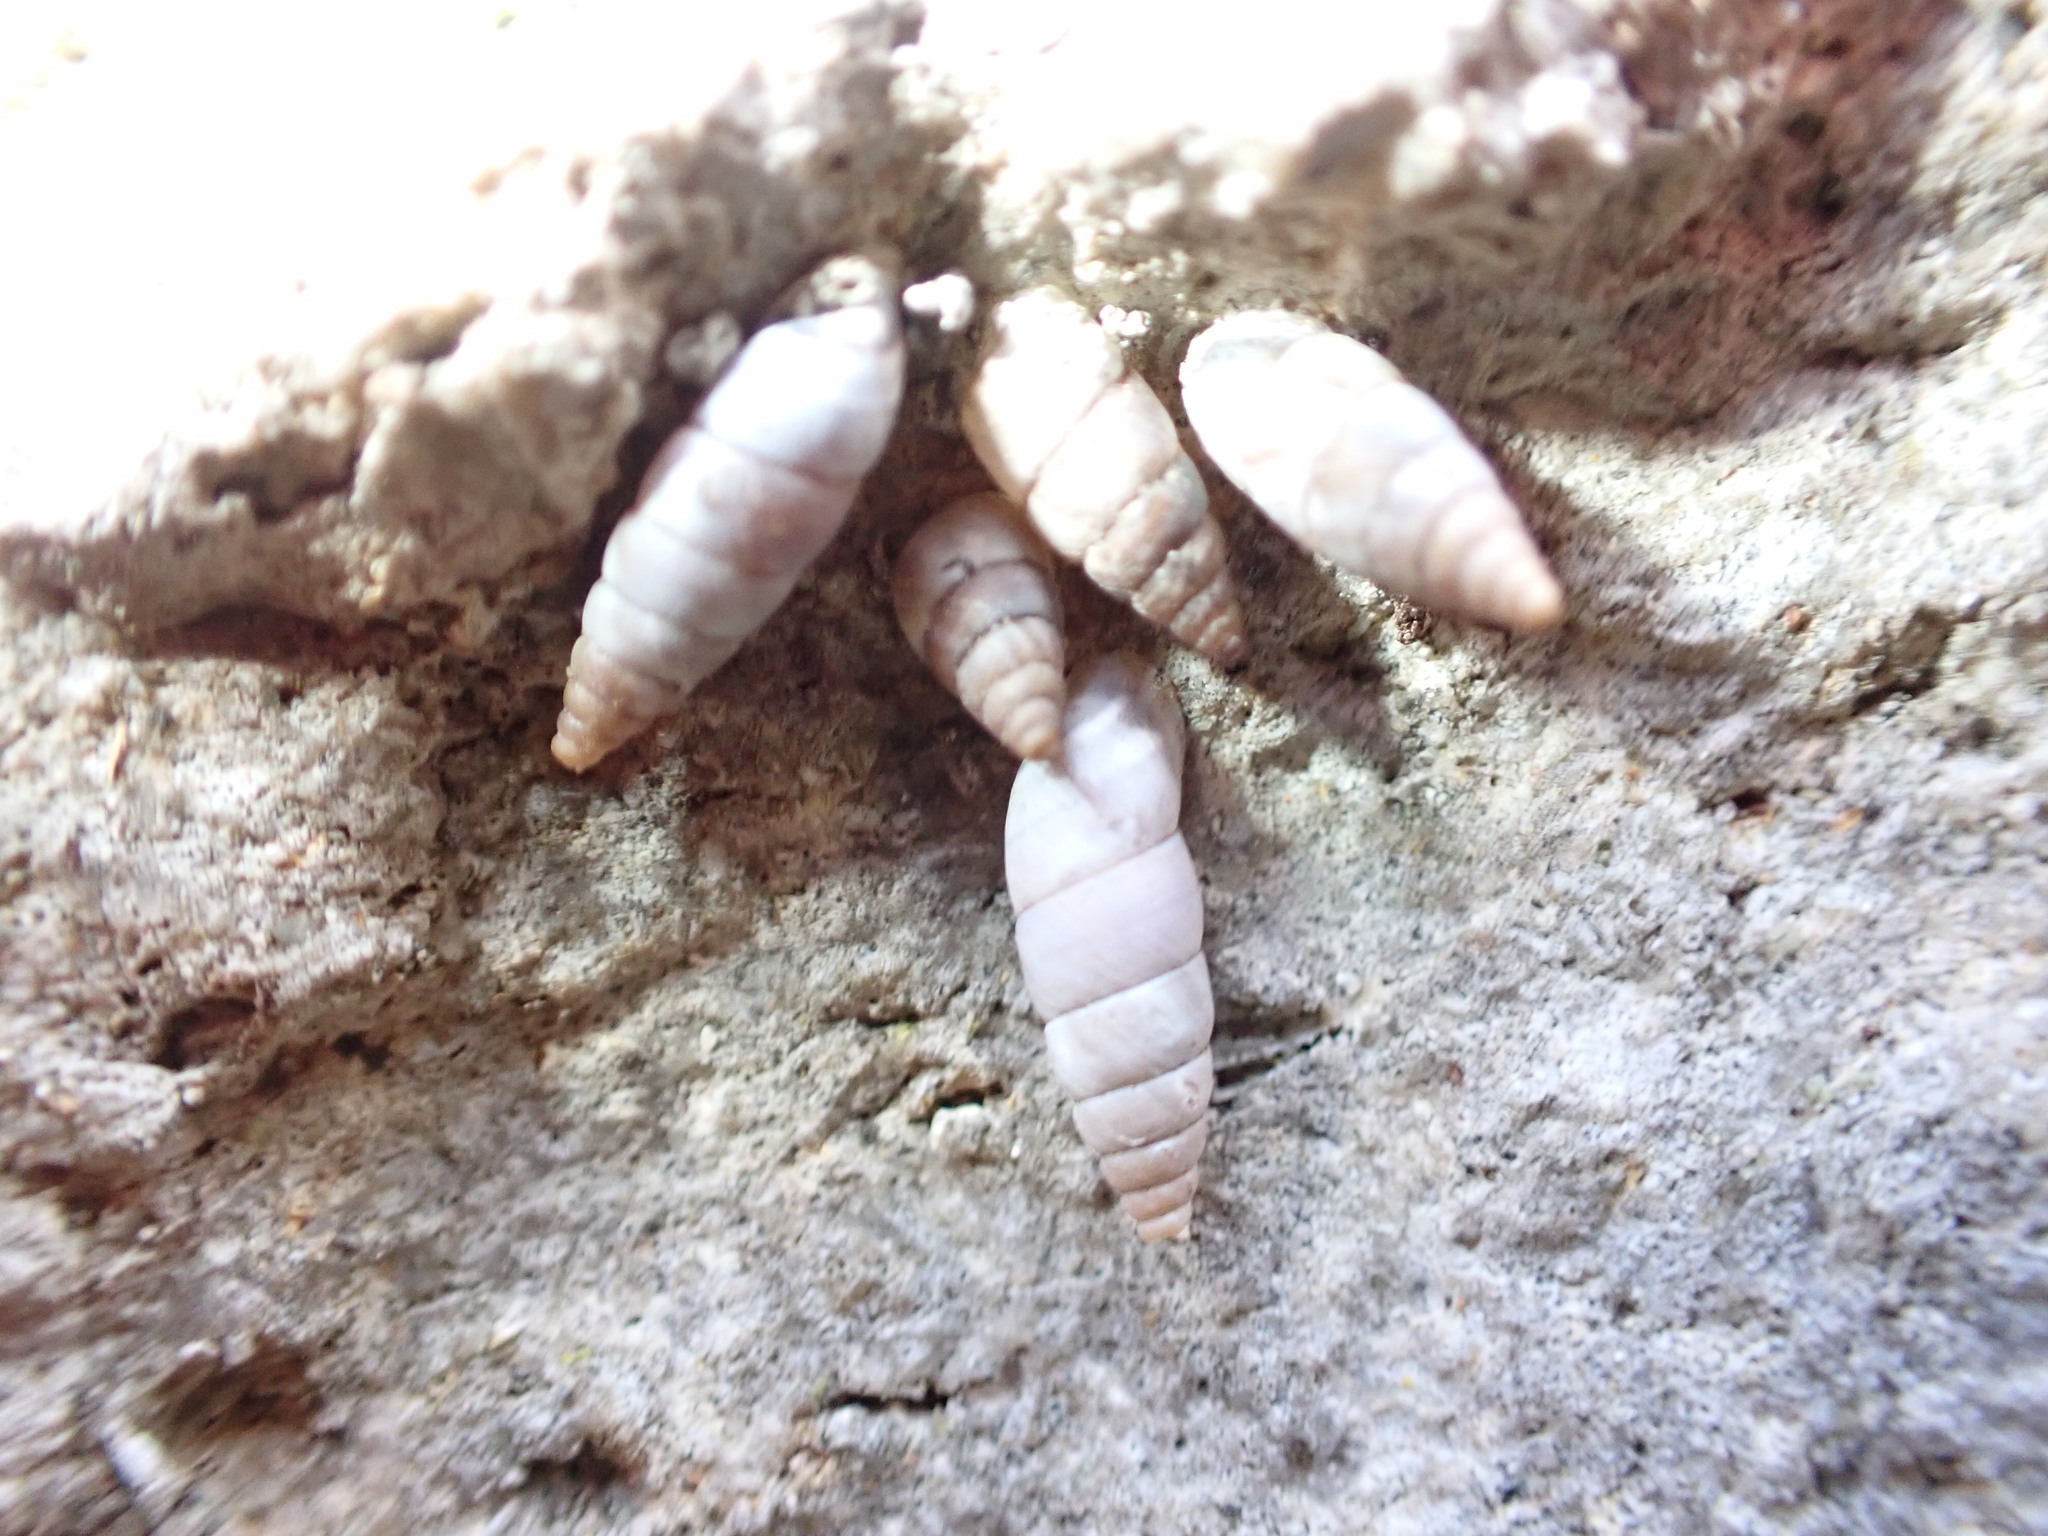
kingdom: Animalia
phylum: Mollusca
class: Gastropoda
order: Stylommatophora
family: Chondrinidae
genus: Solatopupa
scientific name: Solatopupa similis
